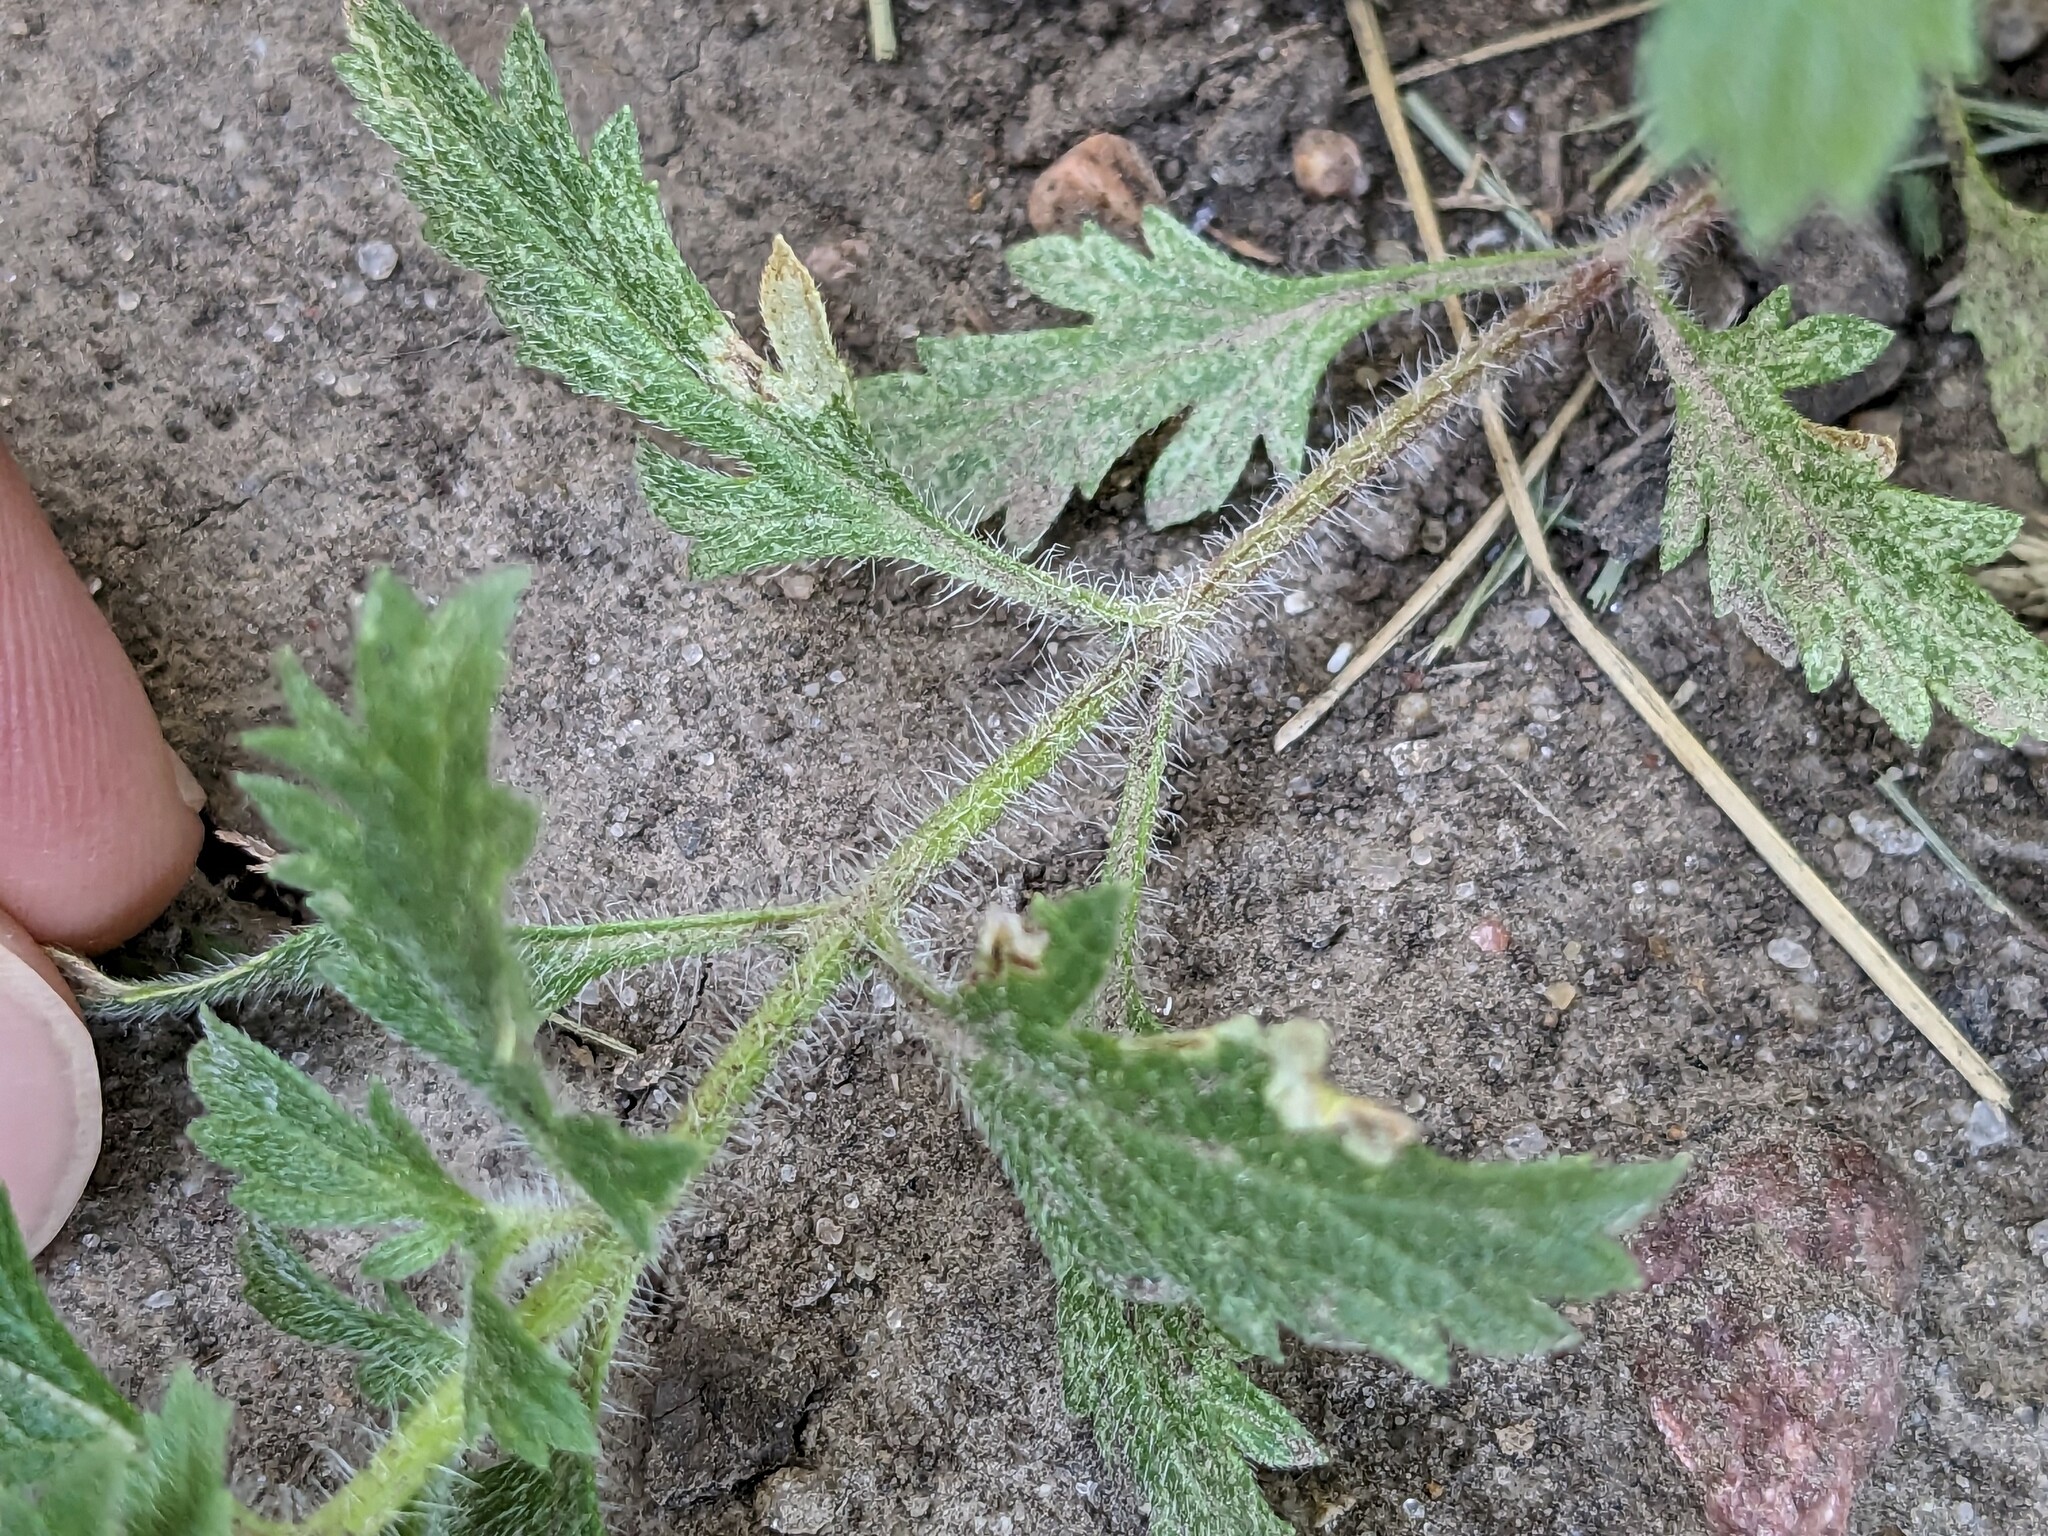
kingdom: Plantae
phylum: Tracheophyta
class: Magnoliopsida
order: Lamiales
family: Verbenaceae
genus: Verbena
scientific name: Verbena bracteata
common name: Bracted vervain
